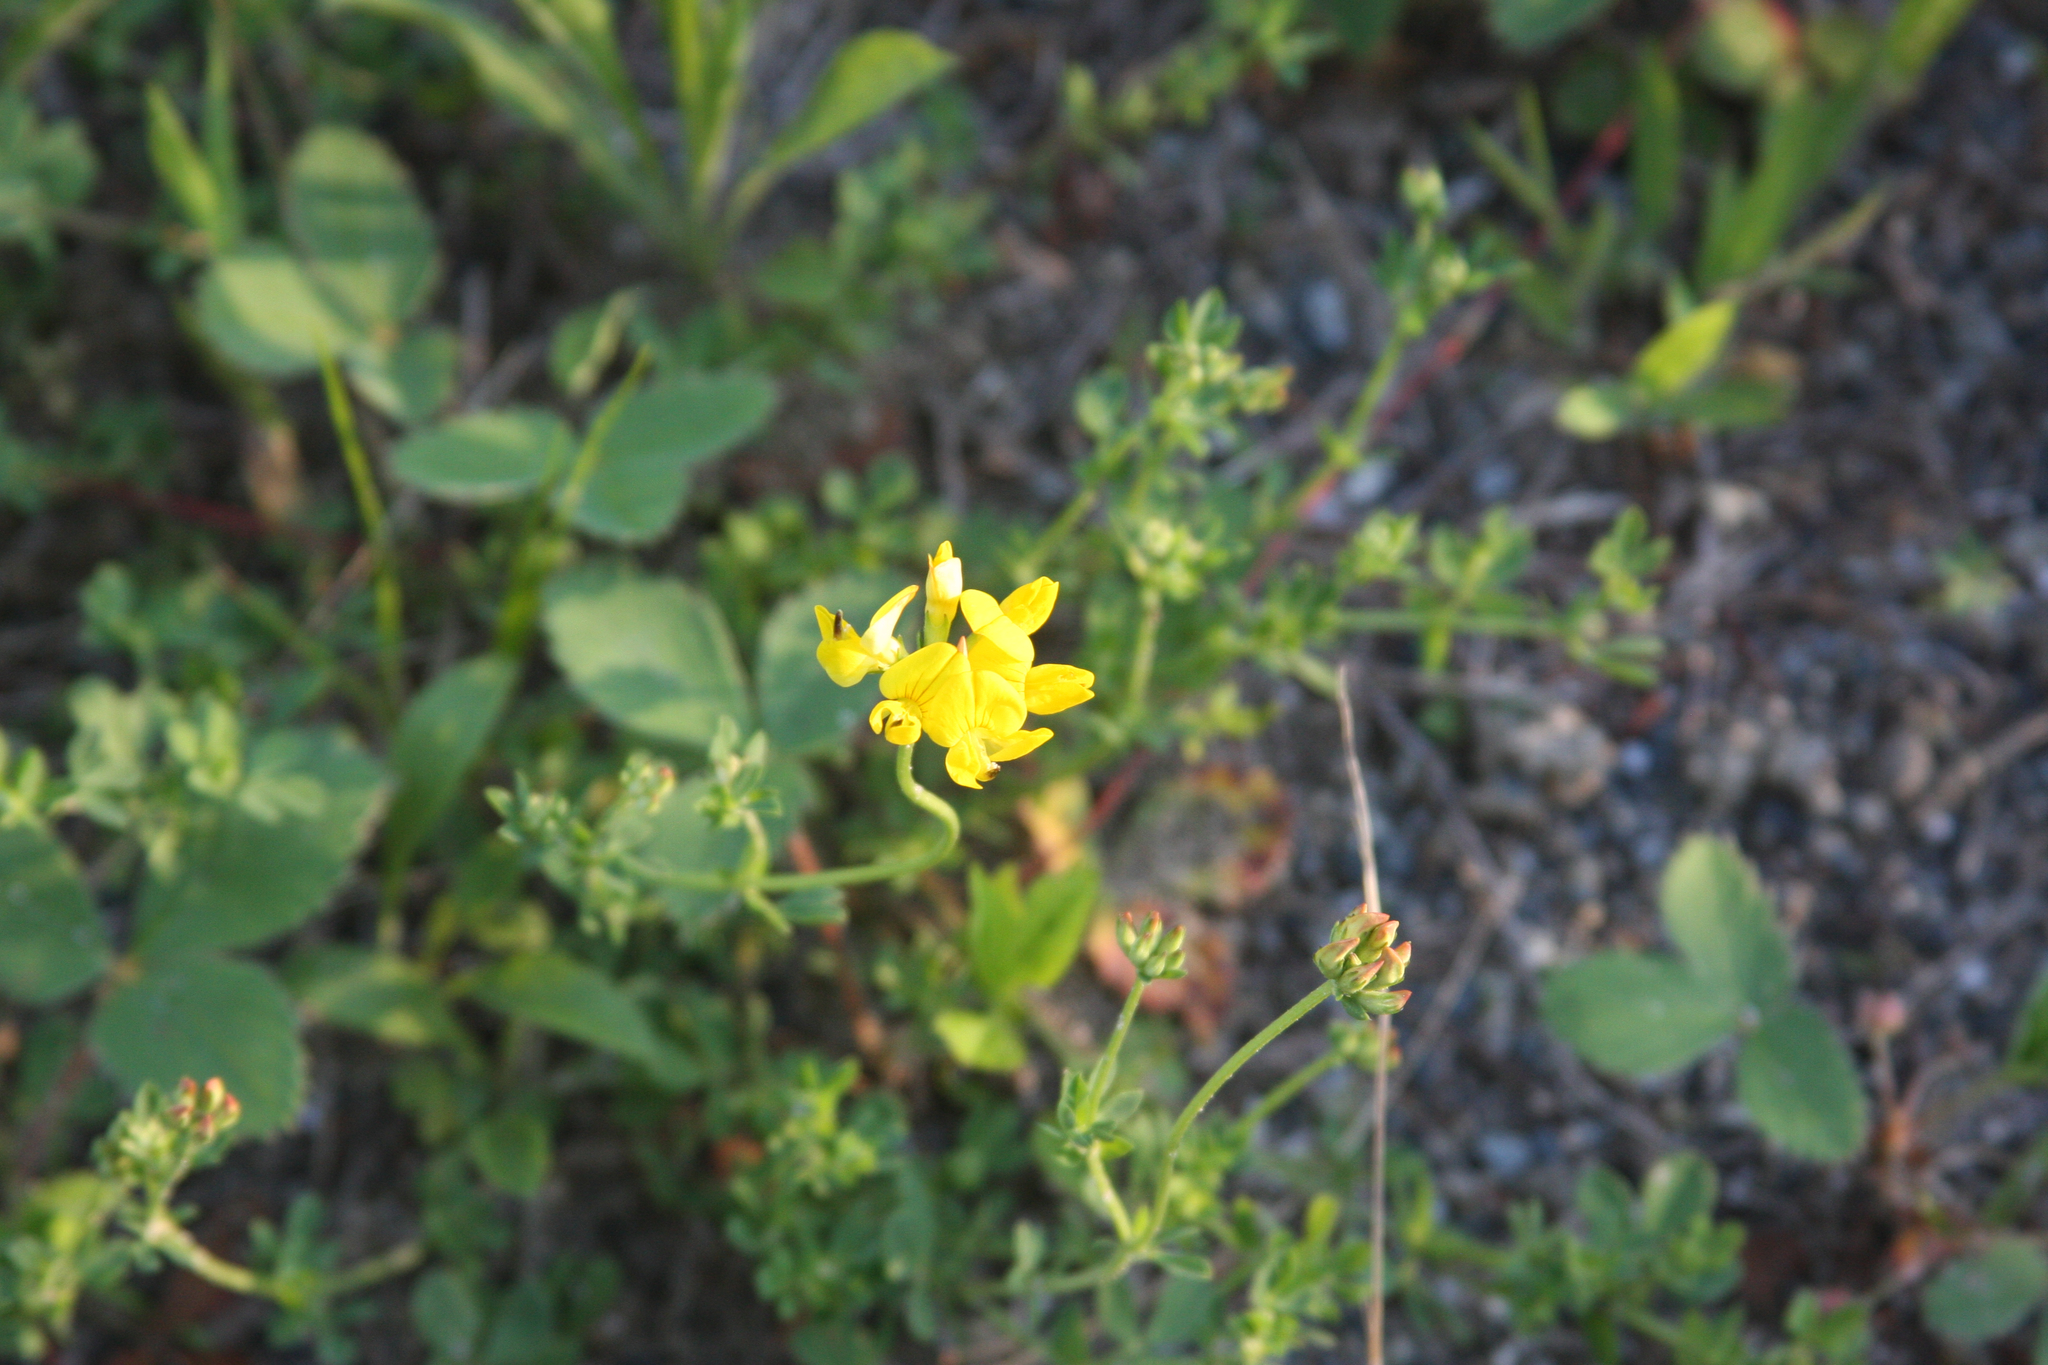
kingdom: Plantae
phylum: Tracheophyta
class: Magnoliopsida
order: Fabales
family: Fabaceae
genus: Lotus
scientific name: Lotus corniculatus
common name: Common bird's-foot-trefoil
